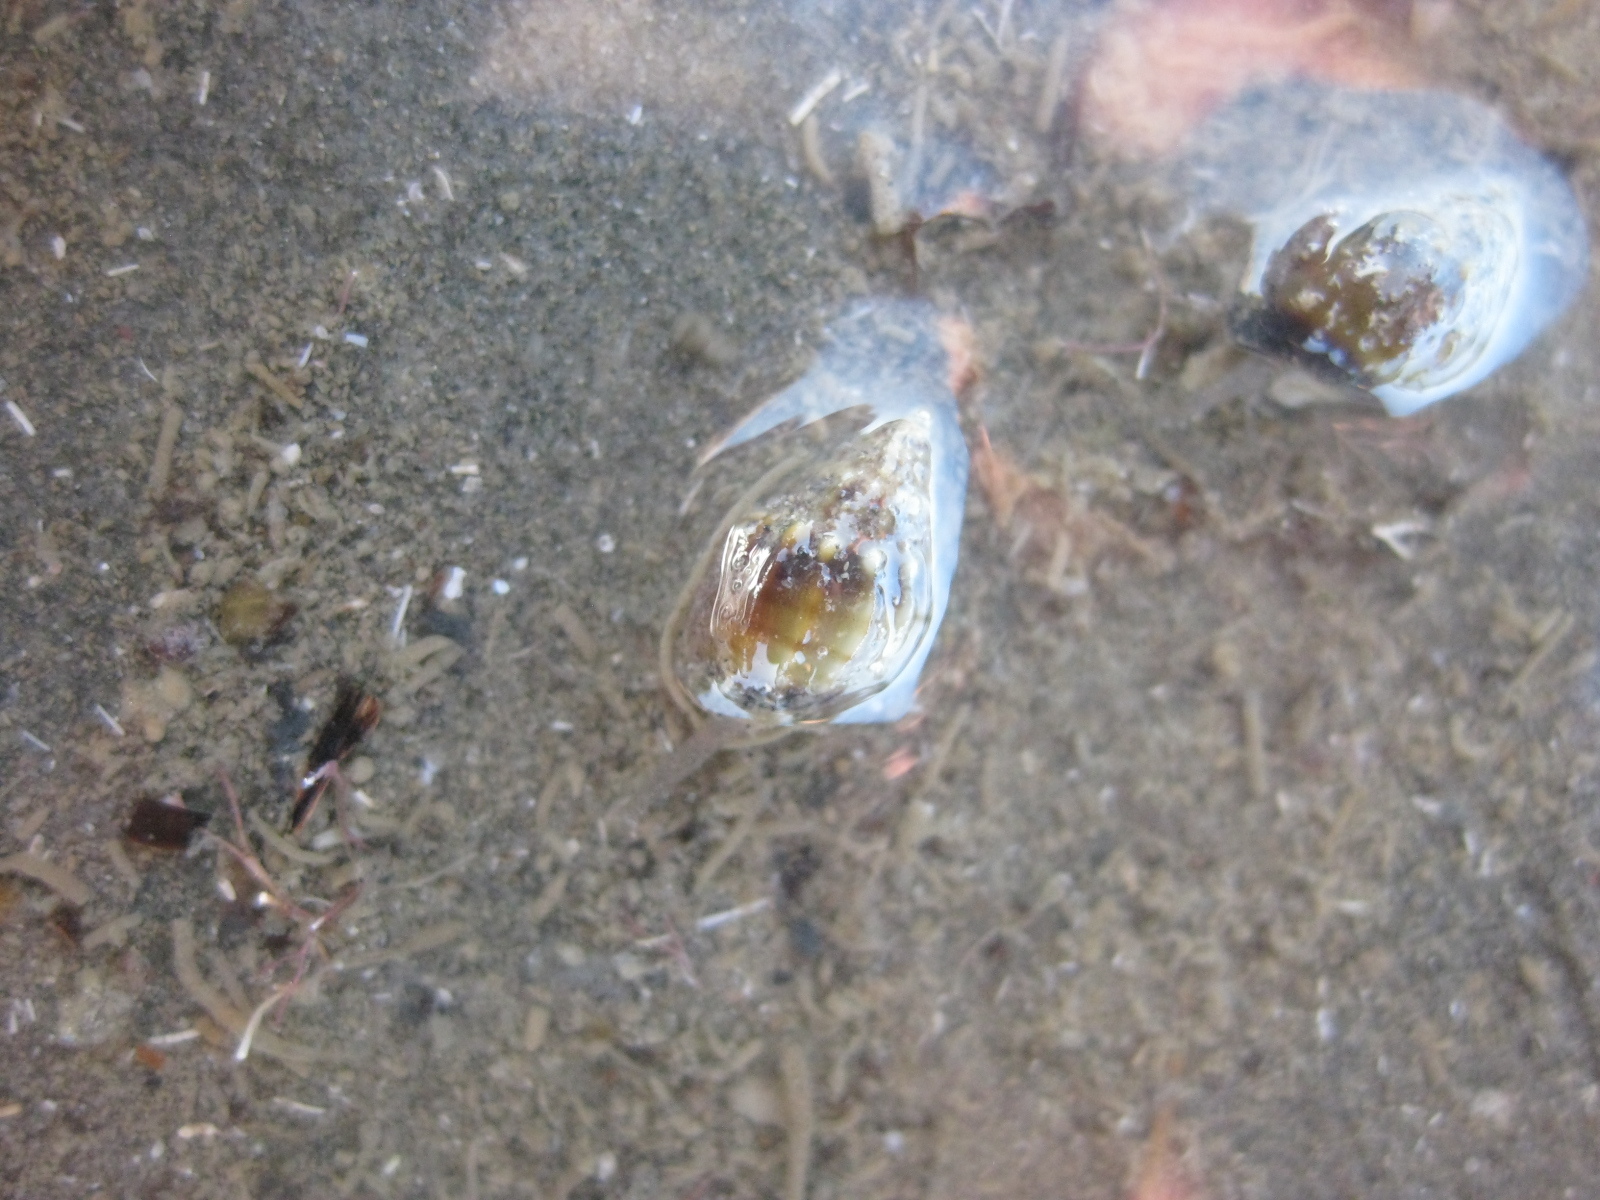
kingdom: Animalia
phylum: Mollusca
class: Gastropoda
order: Neogastropoda
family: Nassariidae
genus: Tritia
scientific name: Tritia burchardi
